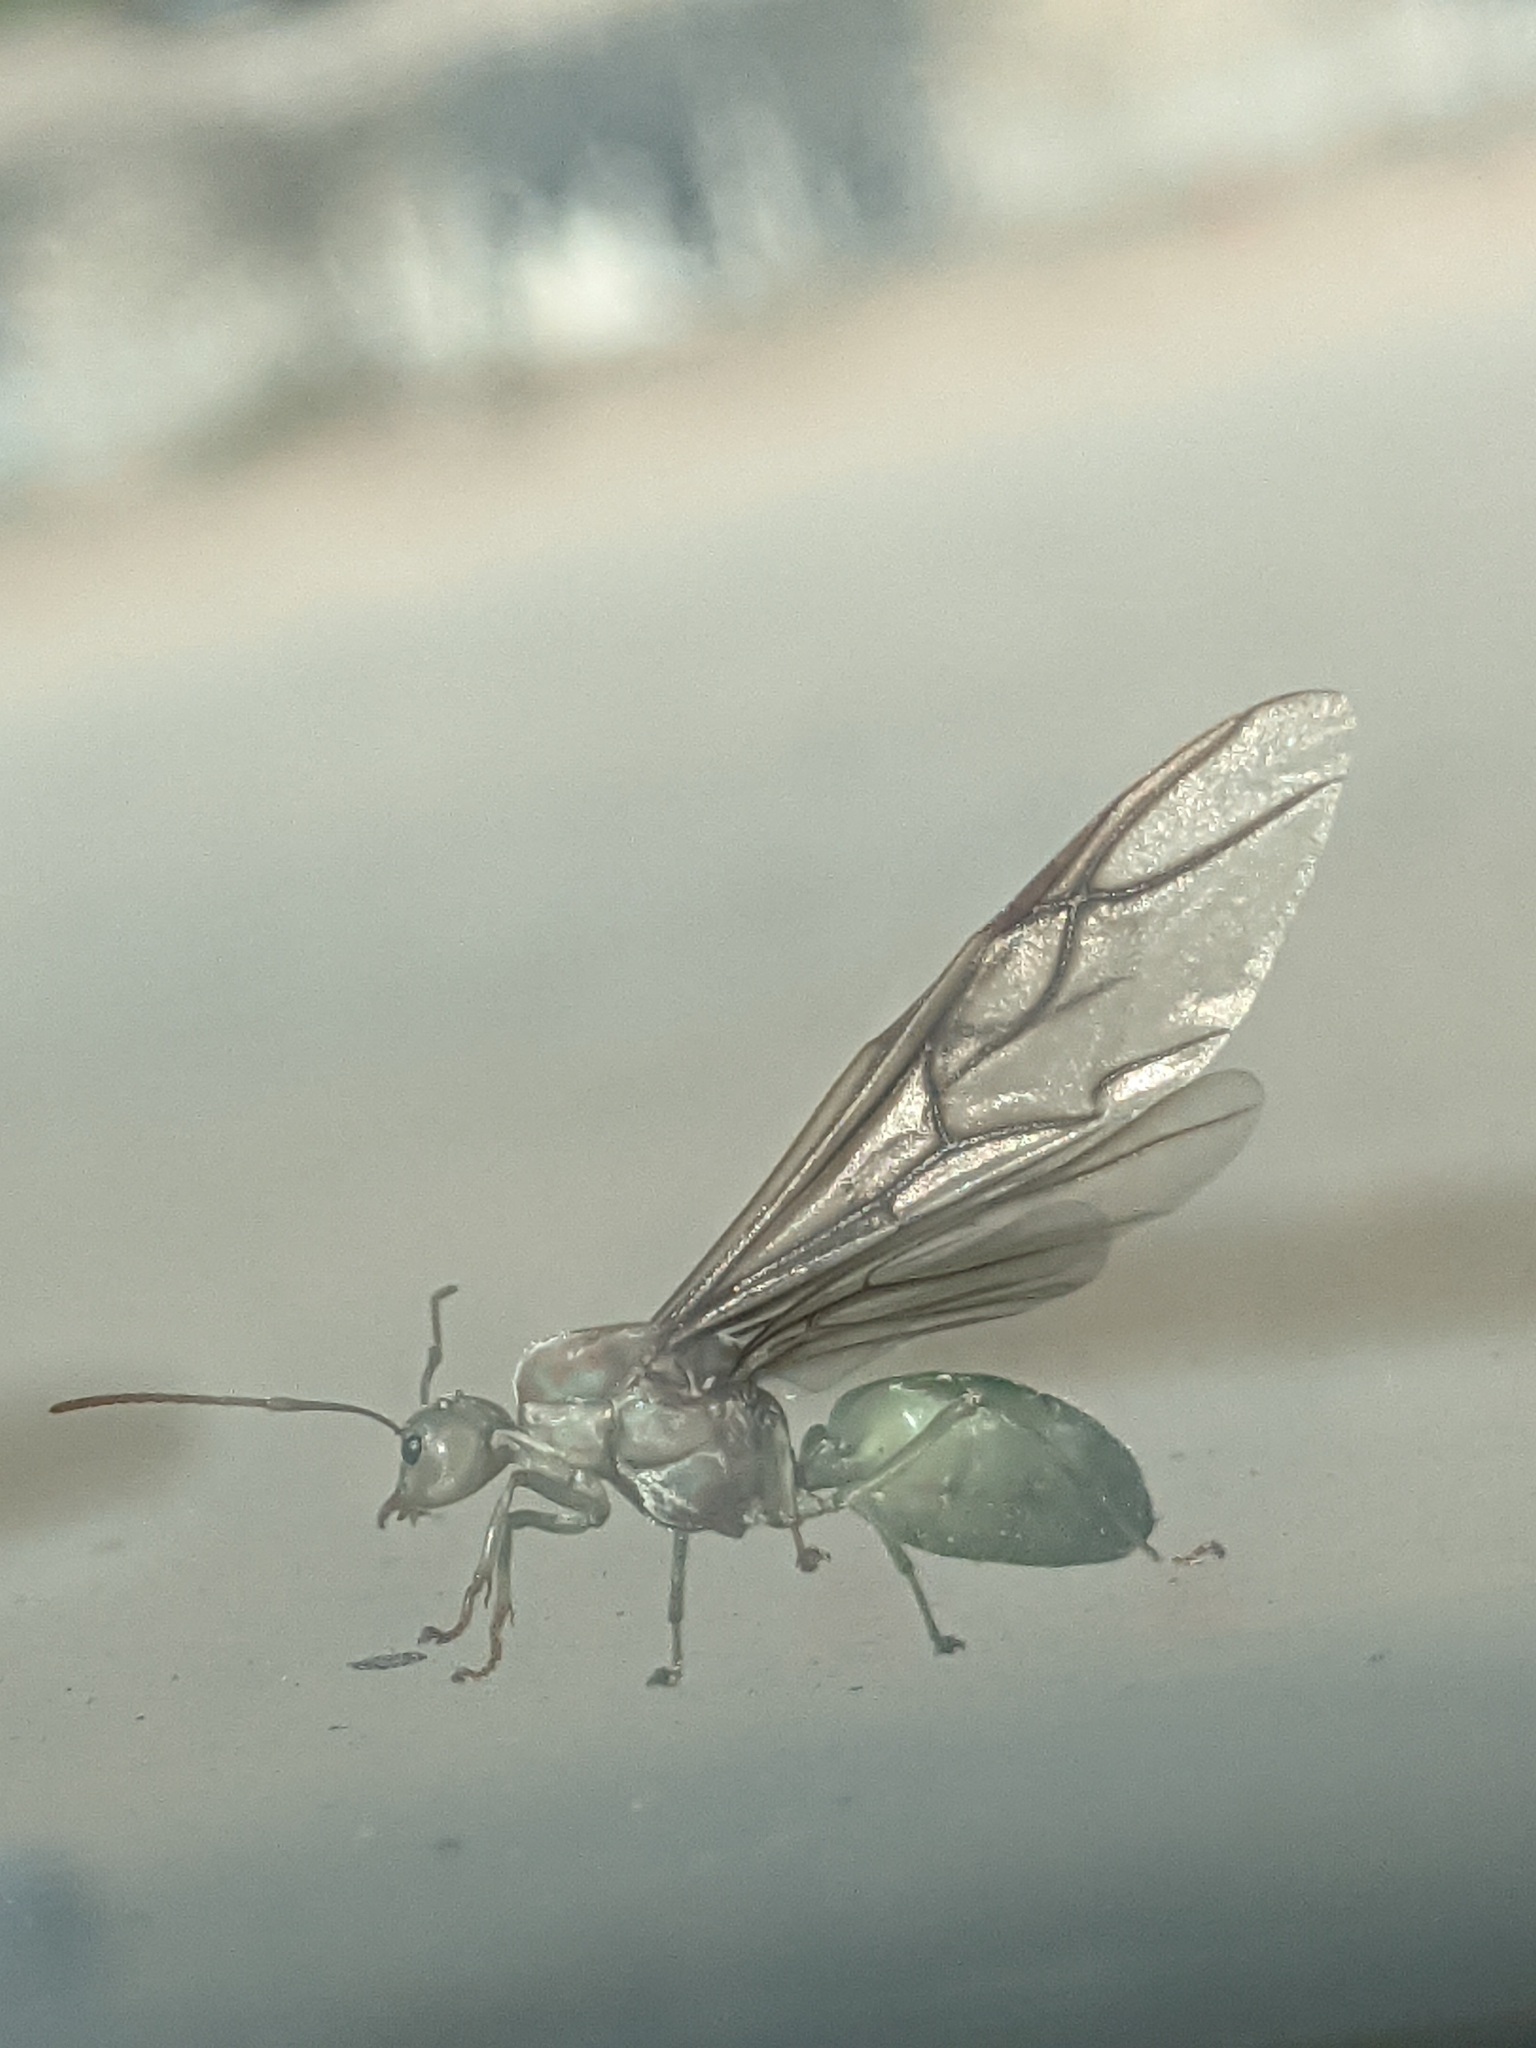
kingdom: Animalia
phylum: Arthropoda
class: Insecta
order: Hymenoptera
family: Formicidae
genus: Oecophylla
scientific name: Oecophylla smaragdina
